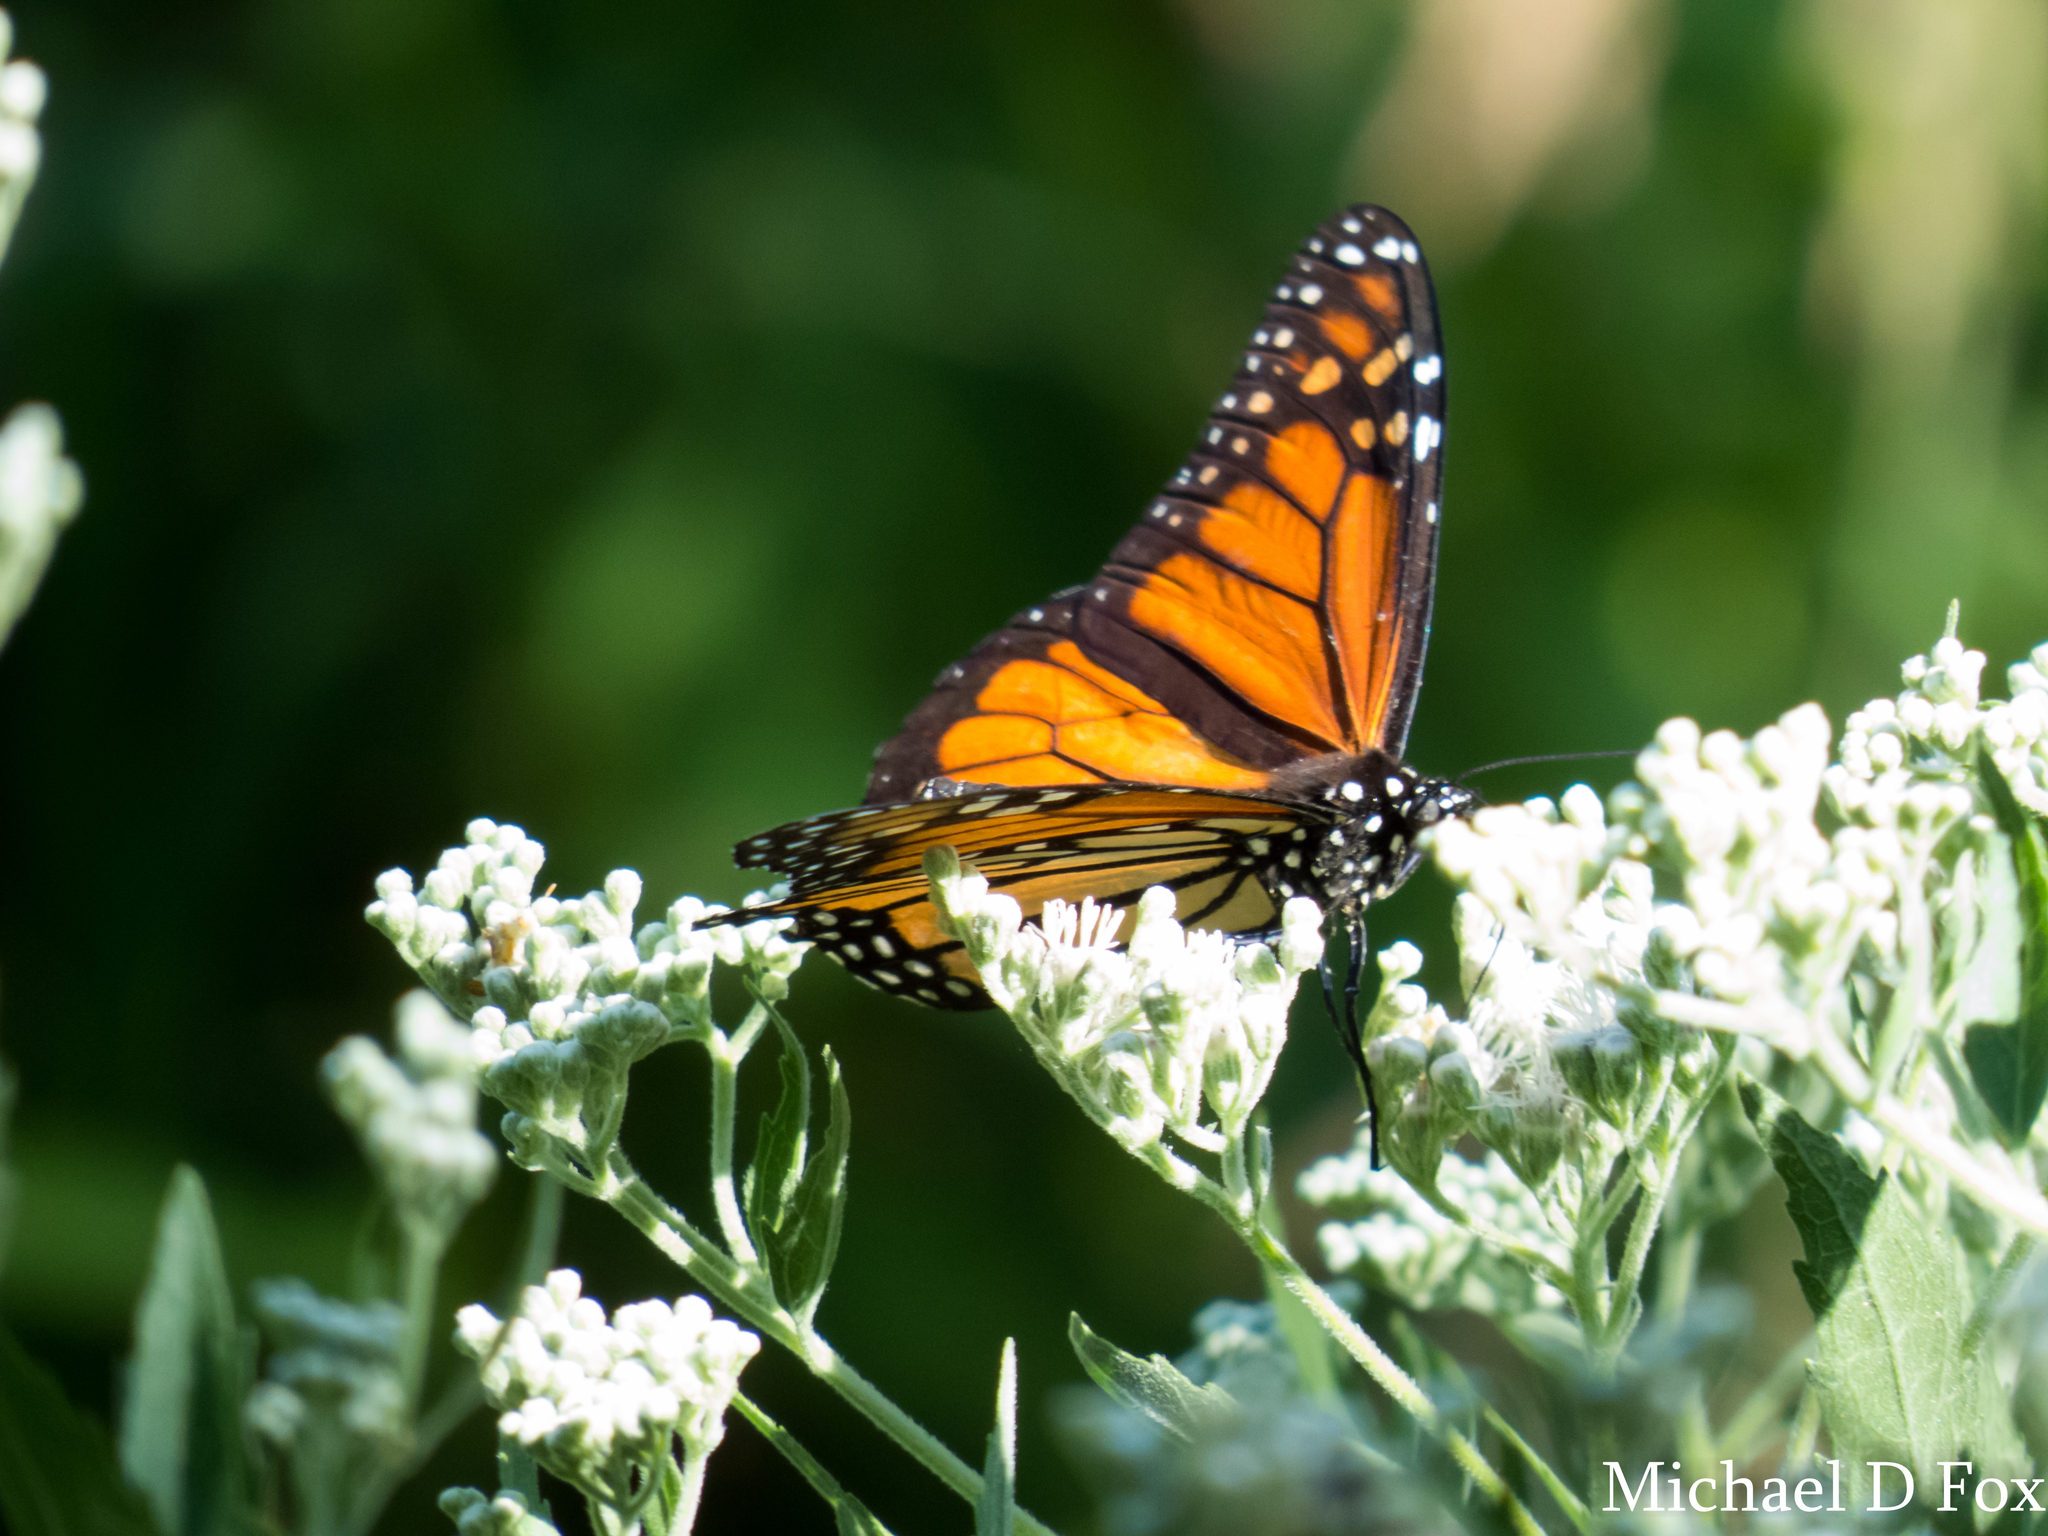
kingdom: Animalia
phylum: Arthropoda
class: Insecta
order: Lepidoptera
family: Nymphalidae
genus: Danaus
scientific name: Danaus plexippus
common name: Monarch
